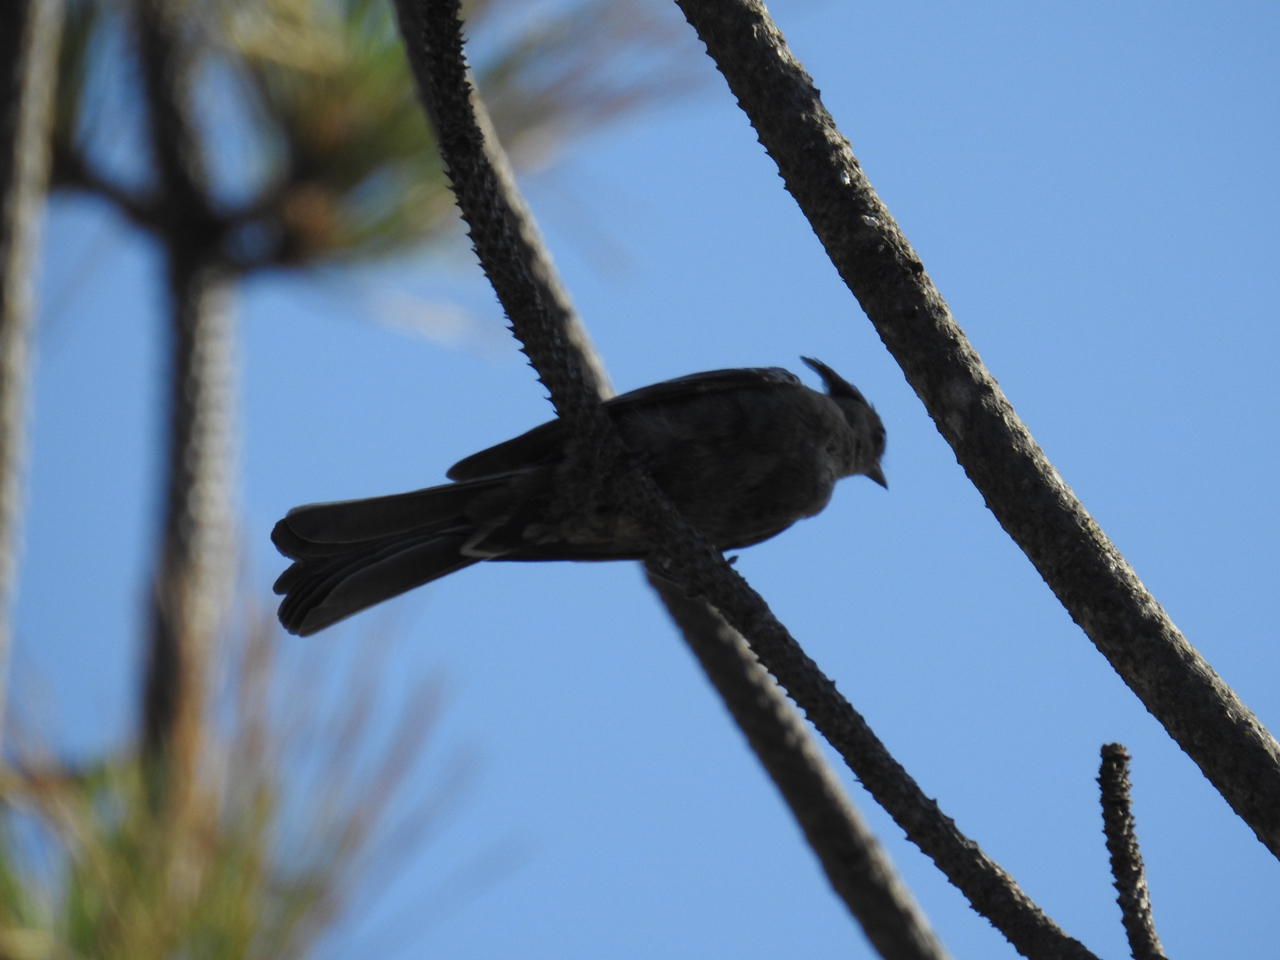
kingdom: Animalia
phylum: Chordata
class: Aves
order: Passeriformes
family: Ptilogonatidae
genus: Phainopepla
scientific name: Phainopepla nitens
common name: Phainopepla
